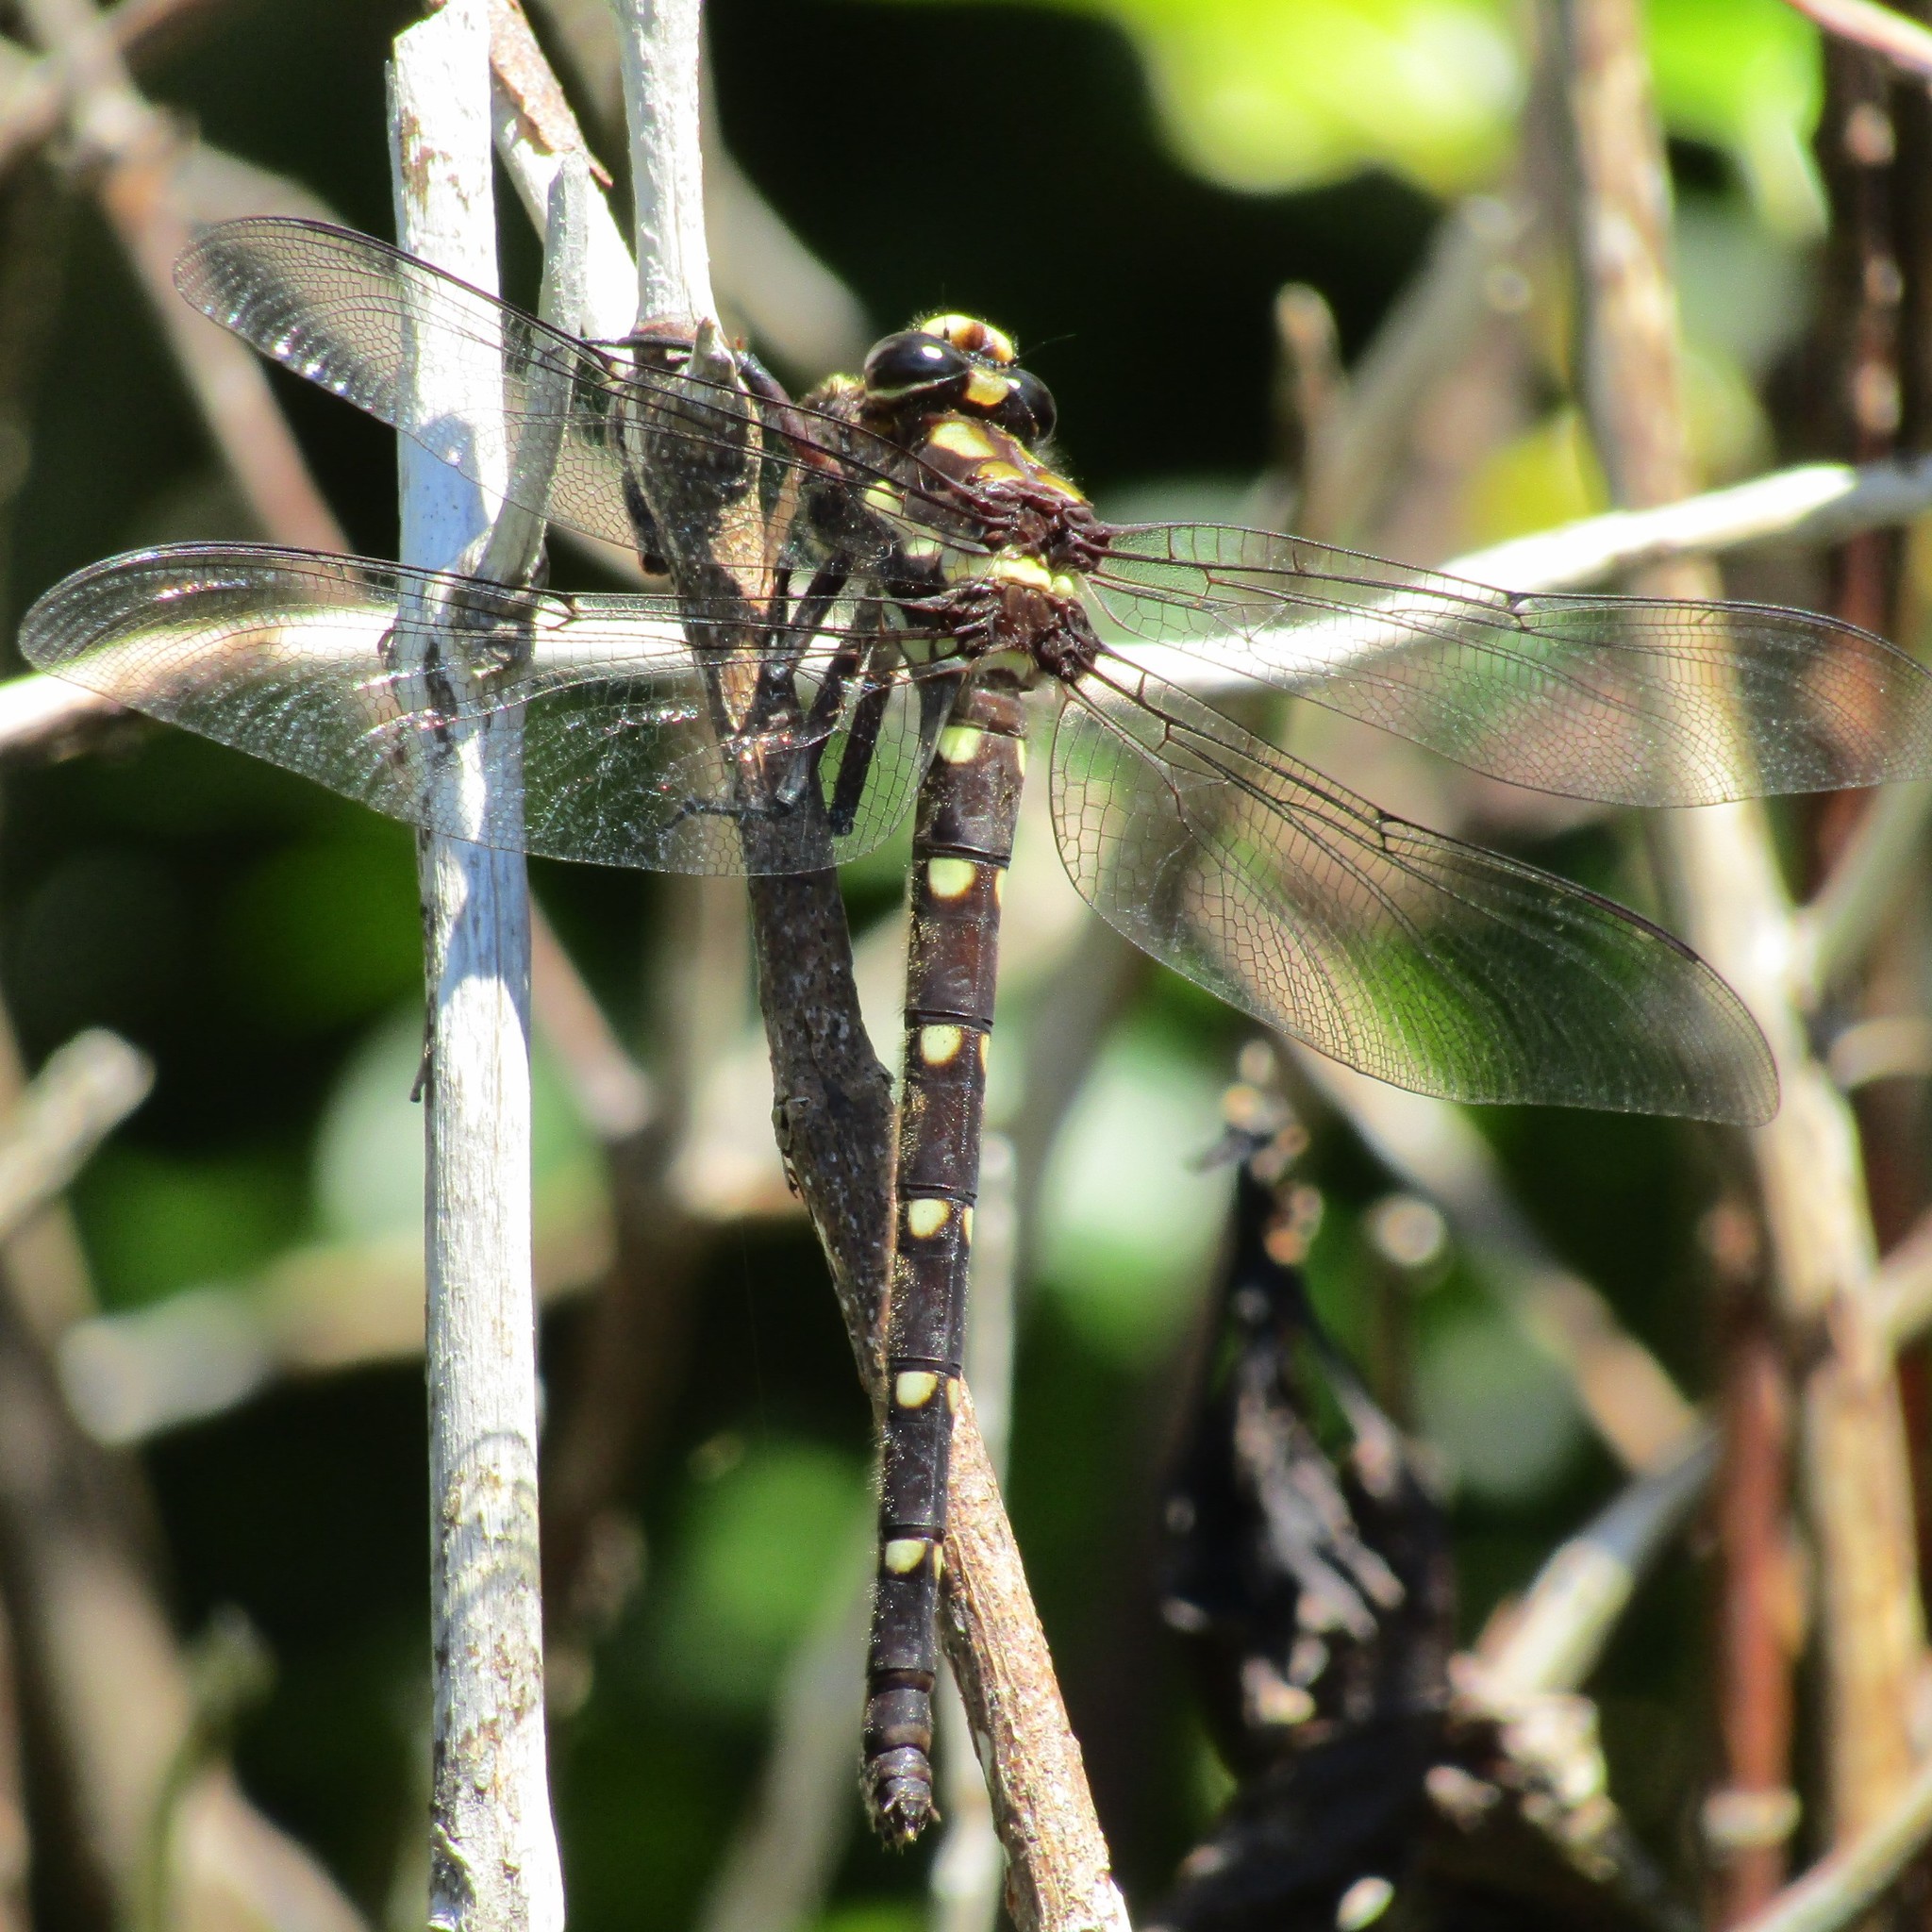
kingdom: Animalia
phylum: Arthropoda
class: Insecta
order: Odonata
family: Petaluridae
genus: Uropetala
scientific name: Uropetala carovei
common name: Bush giant dragonfly
